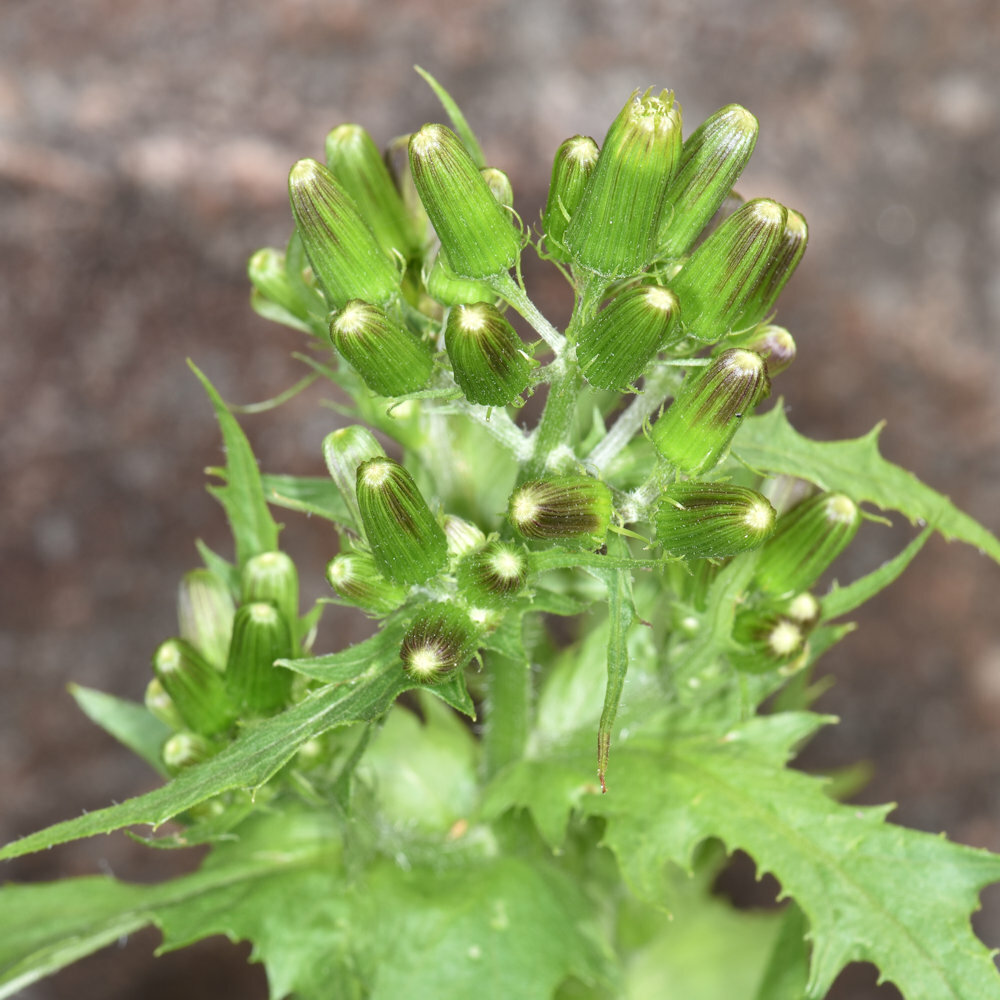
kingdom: Plantae
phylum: Tracheophyta
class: Magnoliopsida
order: Asterales
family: Asteraceae
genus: Erechtites
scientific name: Erechtites hieraciifolius
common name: American burnweed
